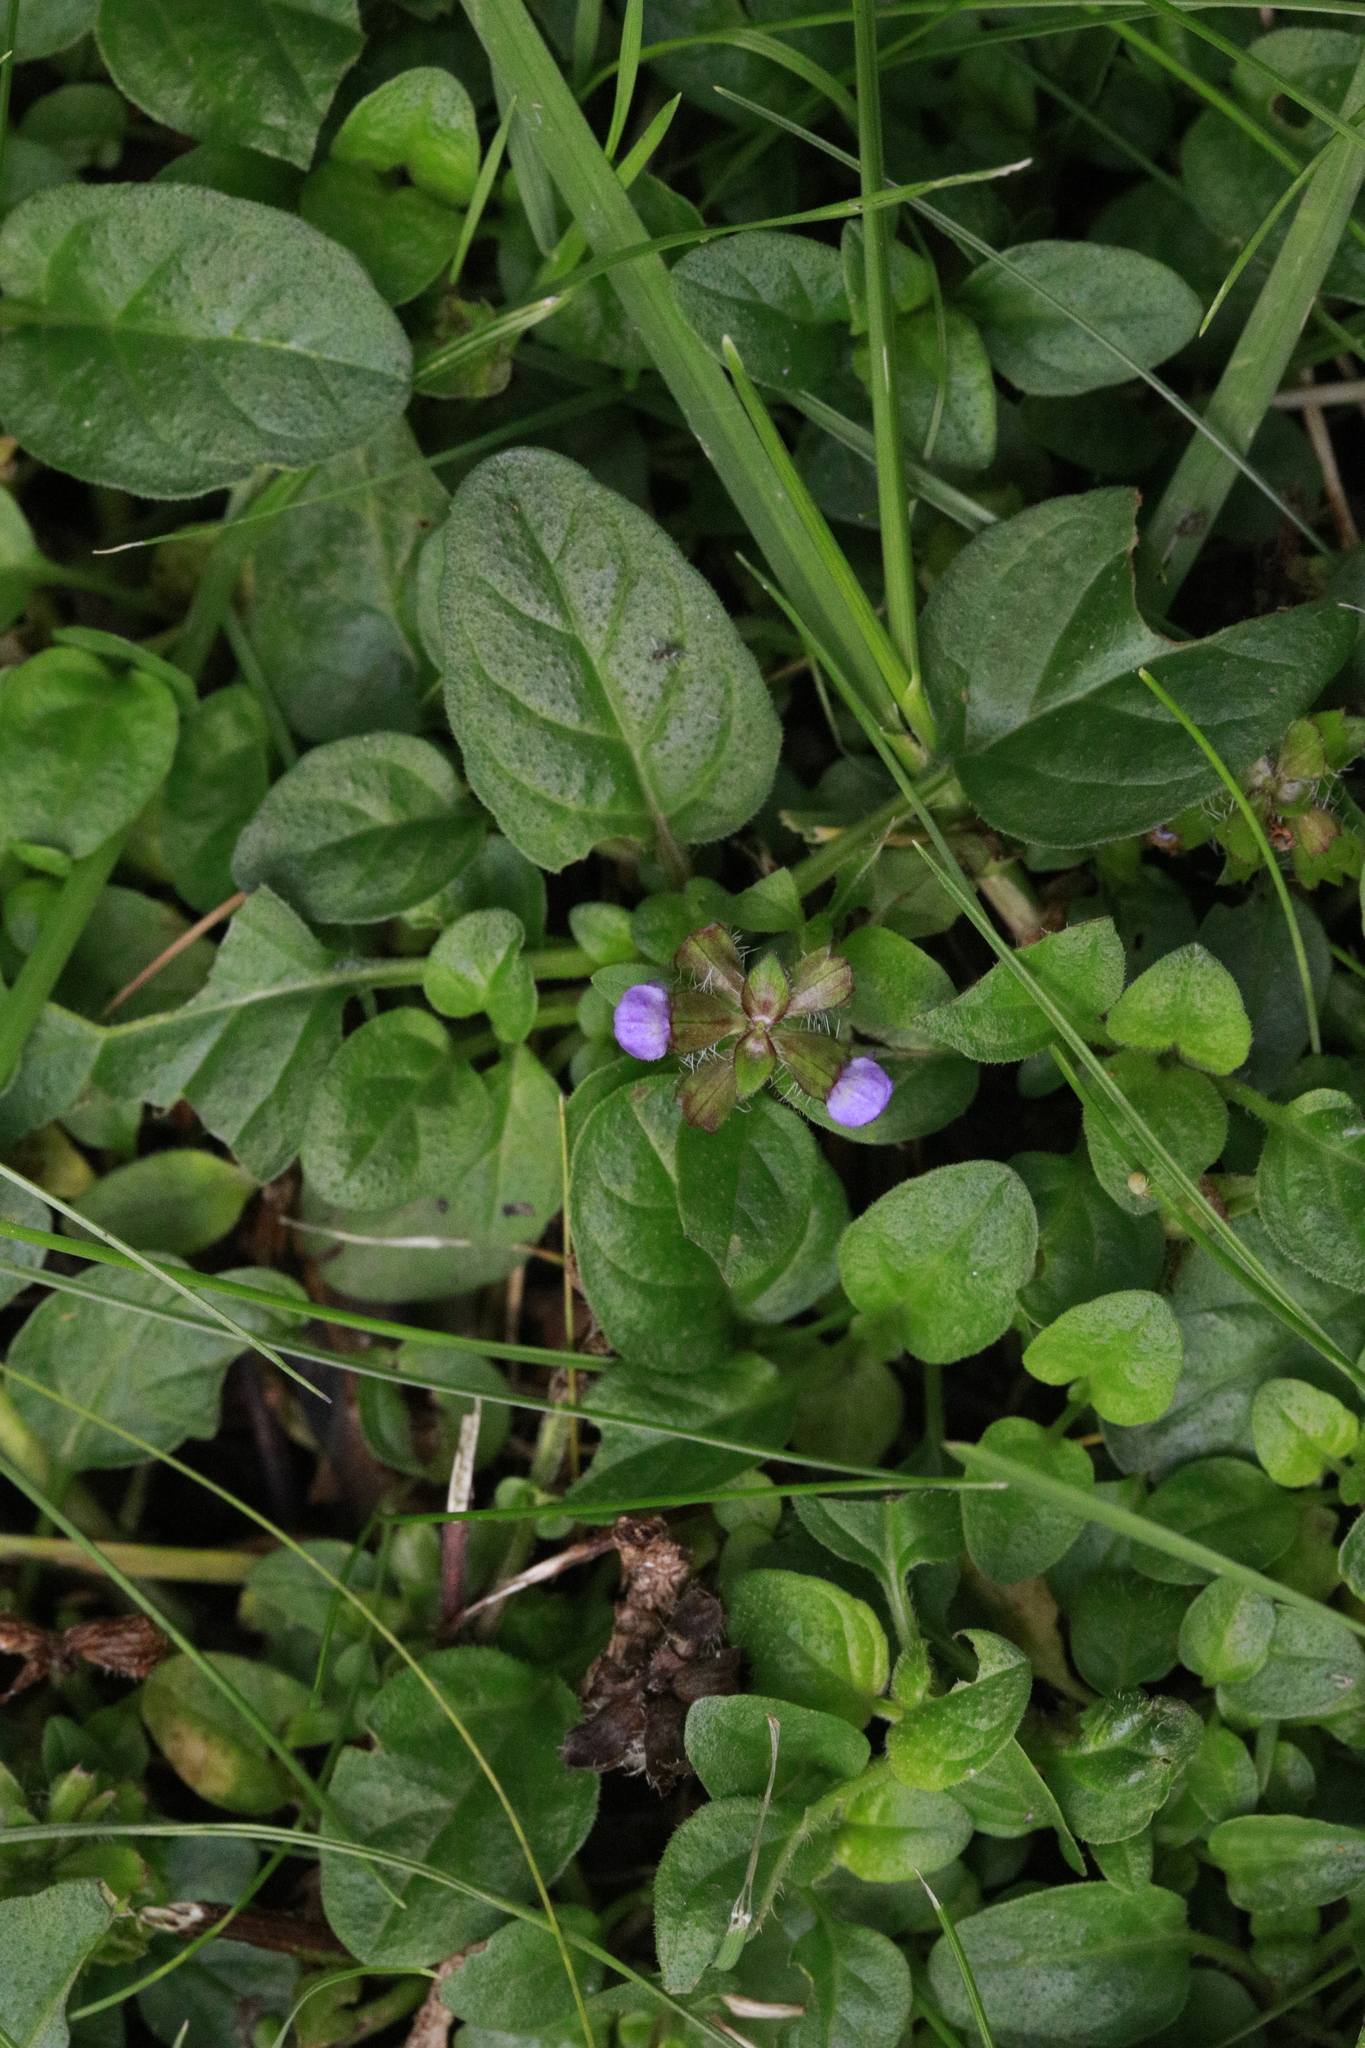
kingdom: Plantae
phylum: Tracheophyta
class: Magnoliopsida
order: Lamiales
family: Lamiaceae
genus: Prunella
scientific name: Prunella vulgaris
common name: Heal-all
